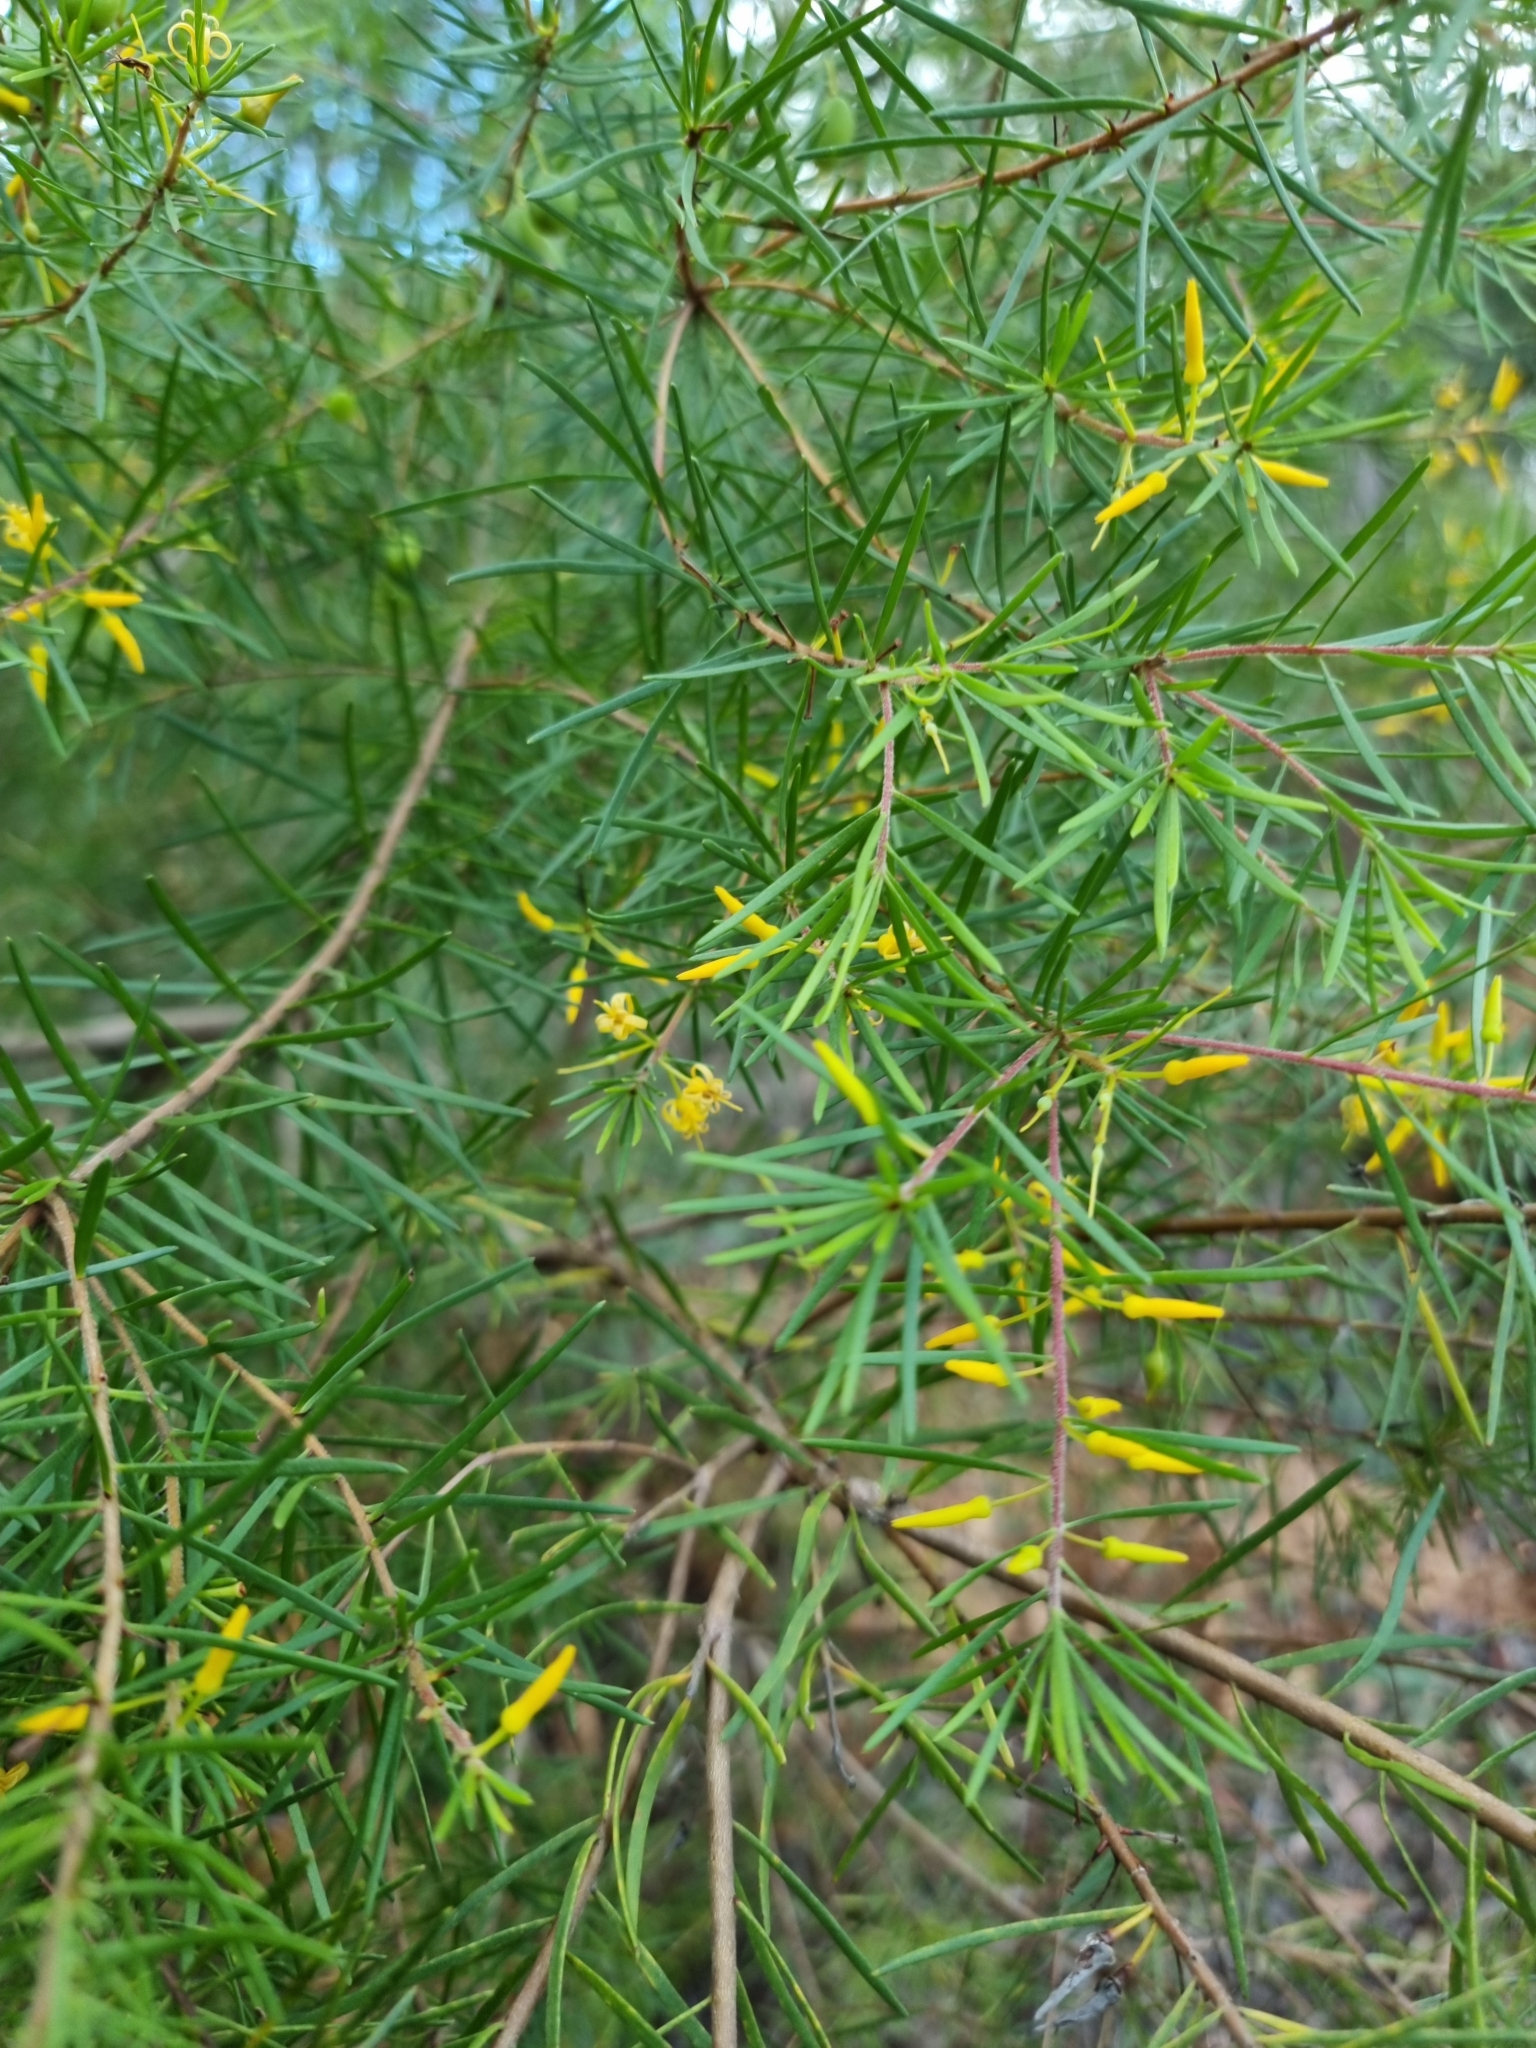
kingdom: Plantae
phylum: Tracheophyta
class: Magnoliopsida
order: Proteales
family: Proteaceae
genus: Persoonia
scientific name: Persoonia virgata
